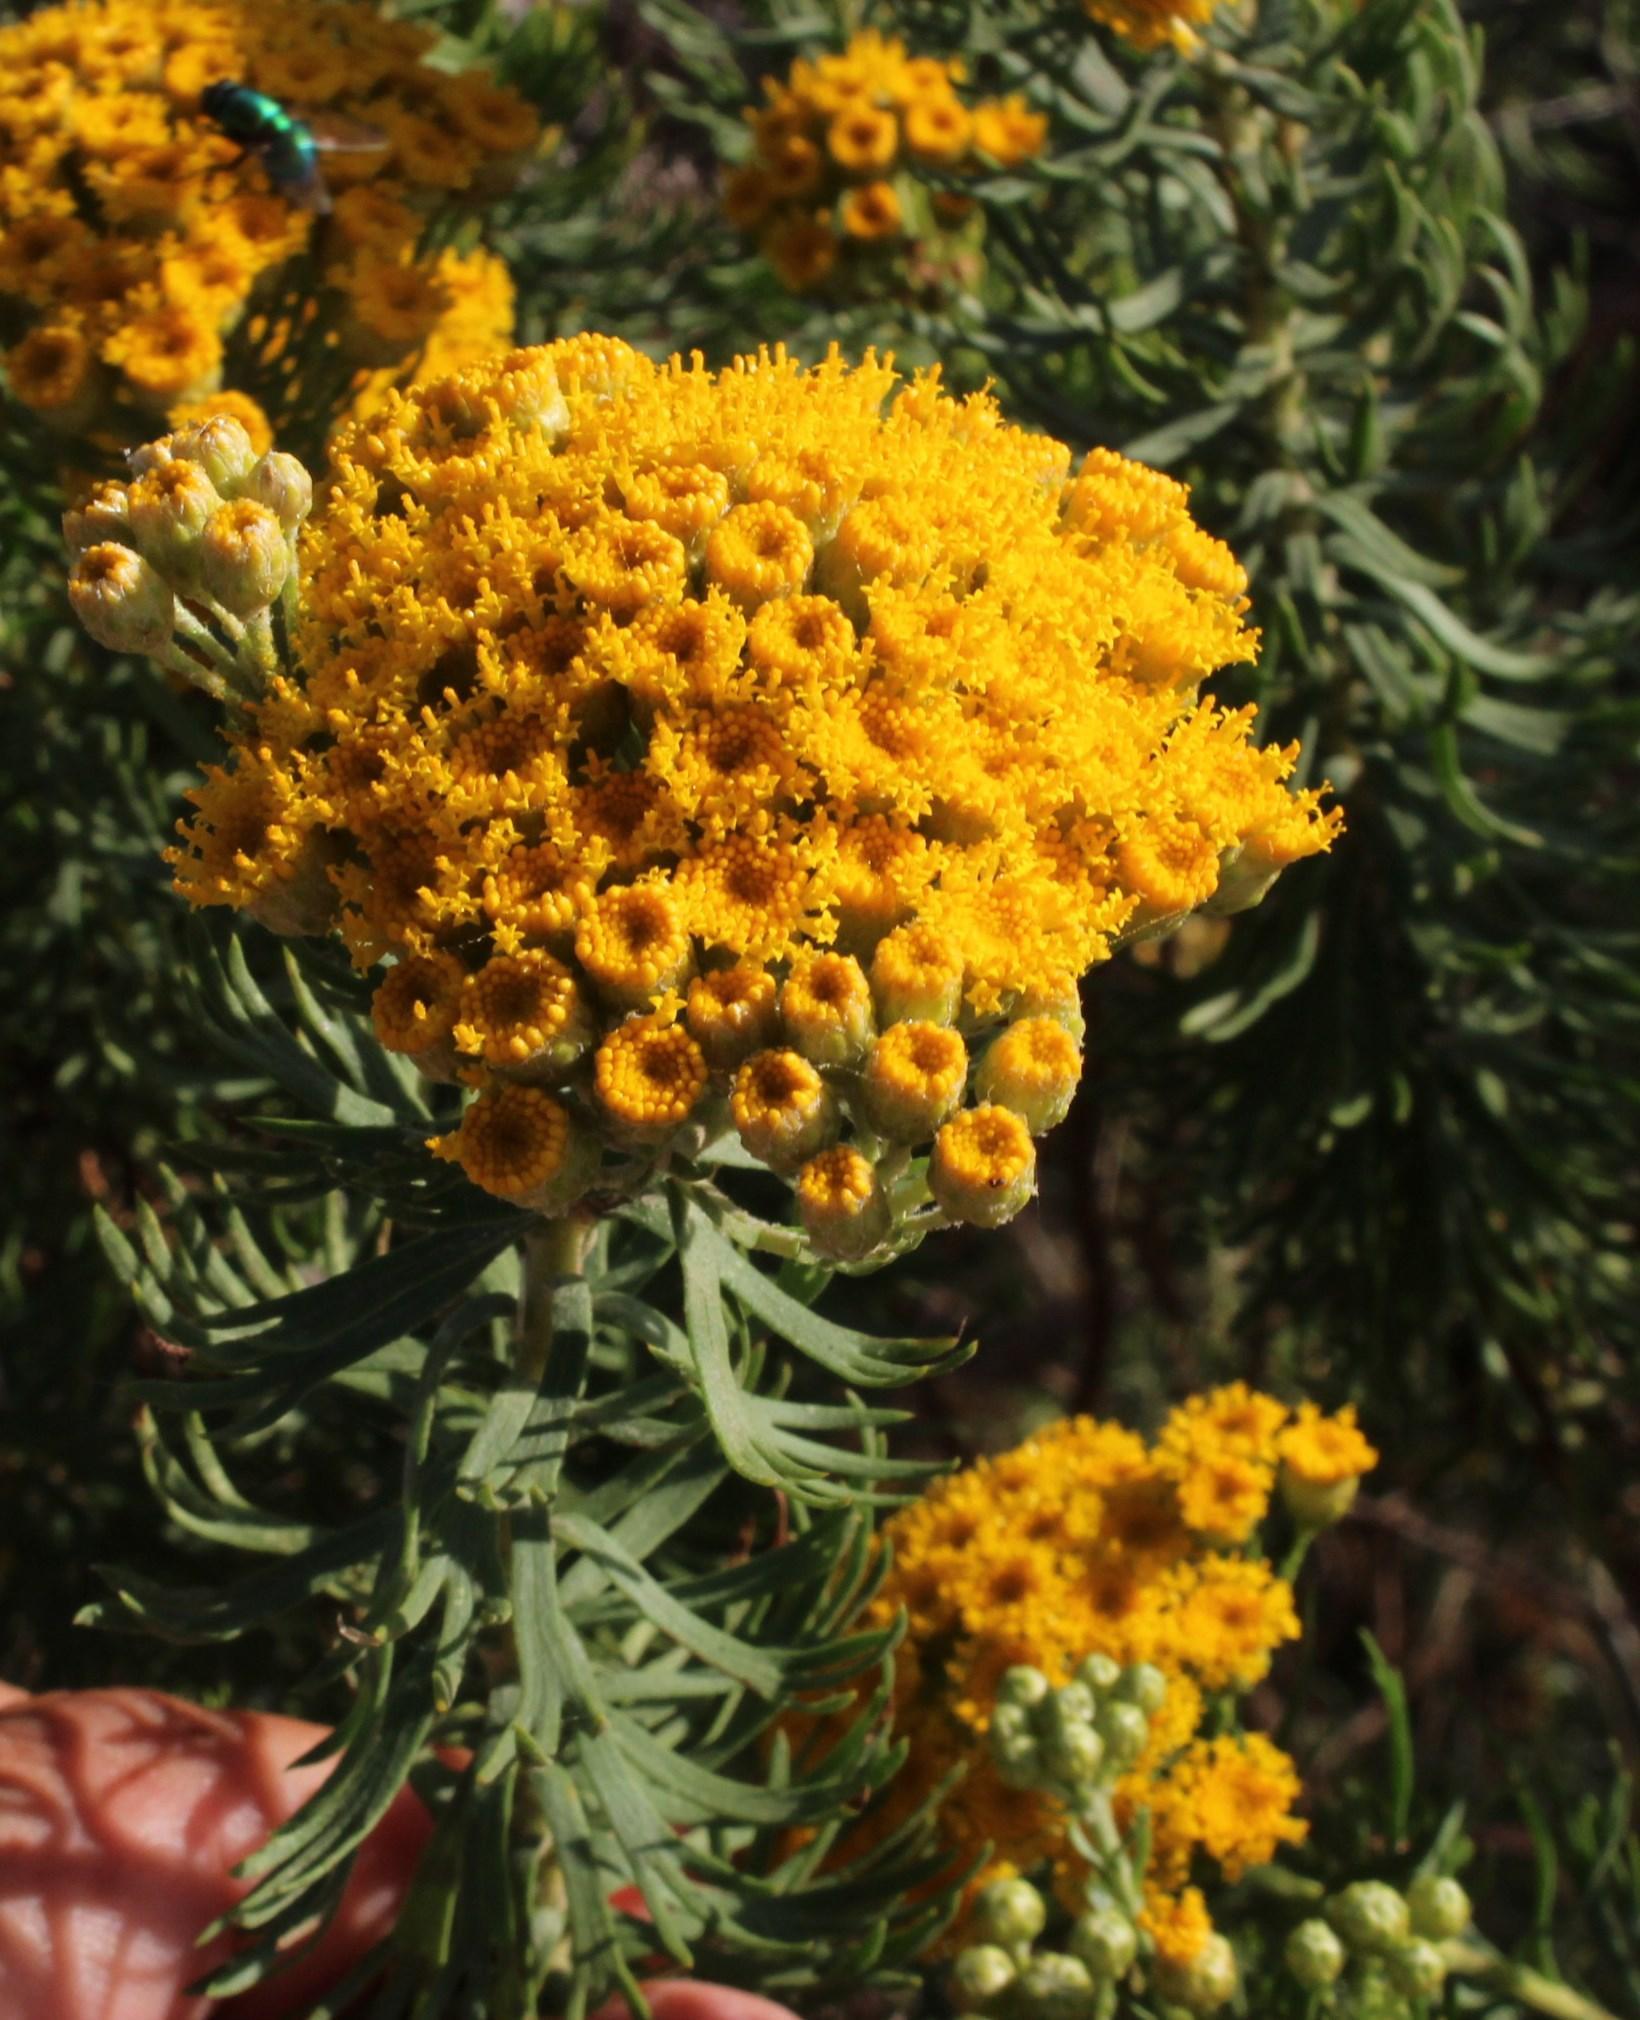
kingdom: Plantae
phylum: Tracheophyta
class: Magnoliopsida
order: Asterales
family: Asteraceae
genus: Athanasia
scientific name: Athanasia trifurcata
